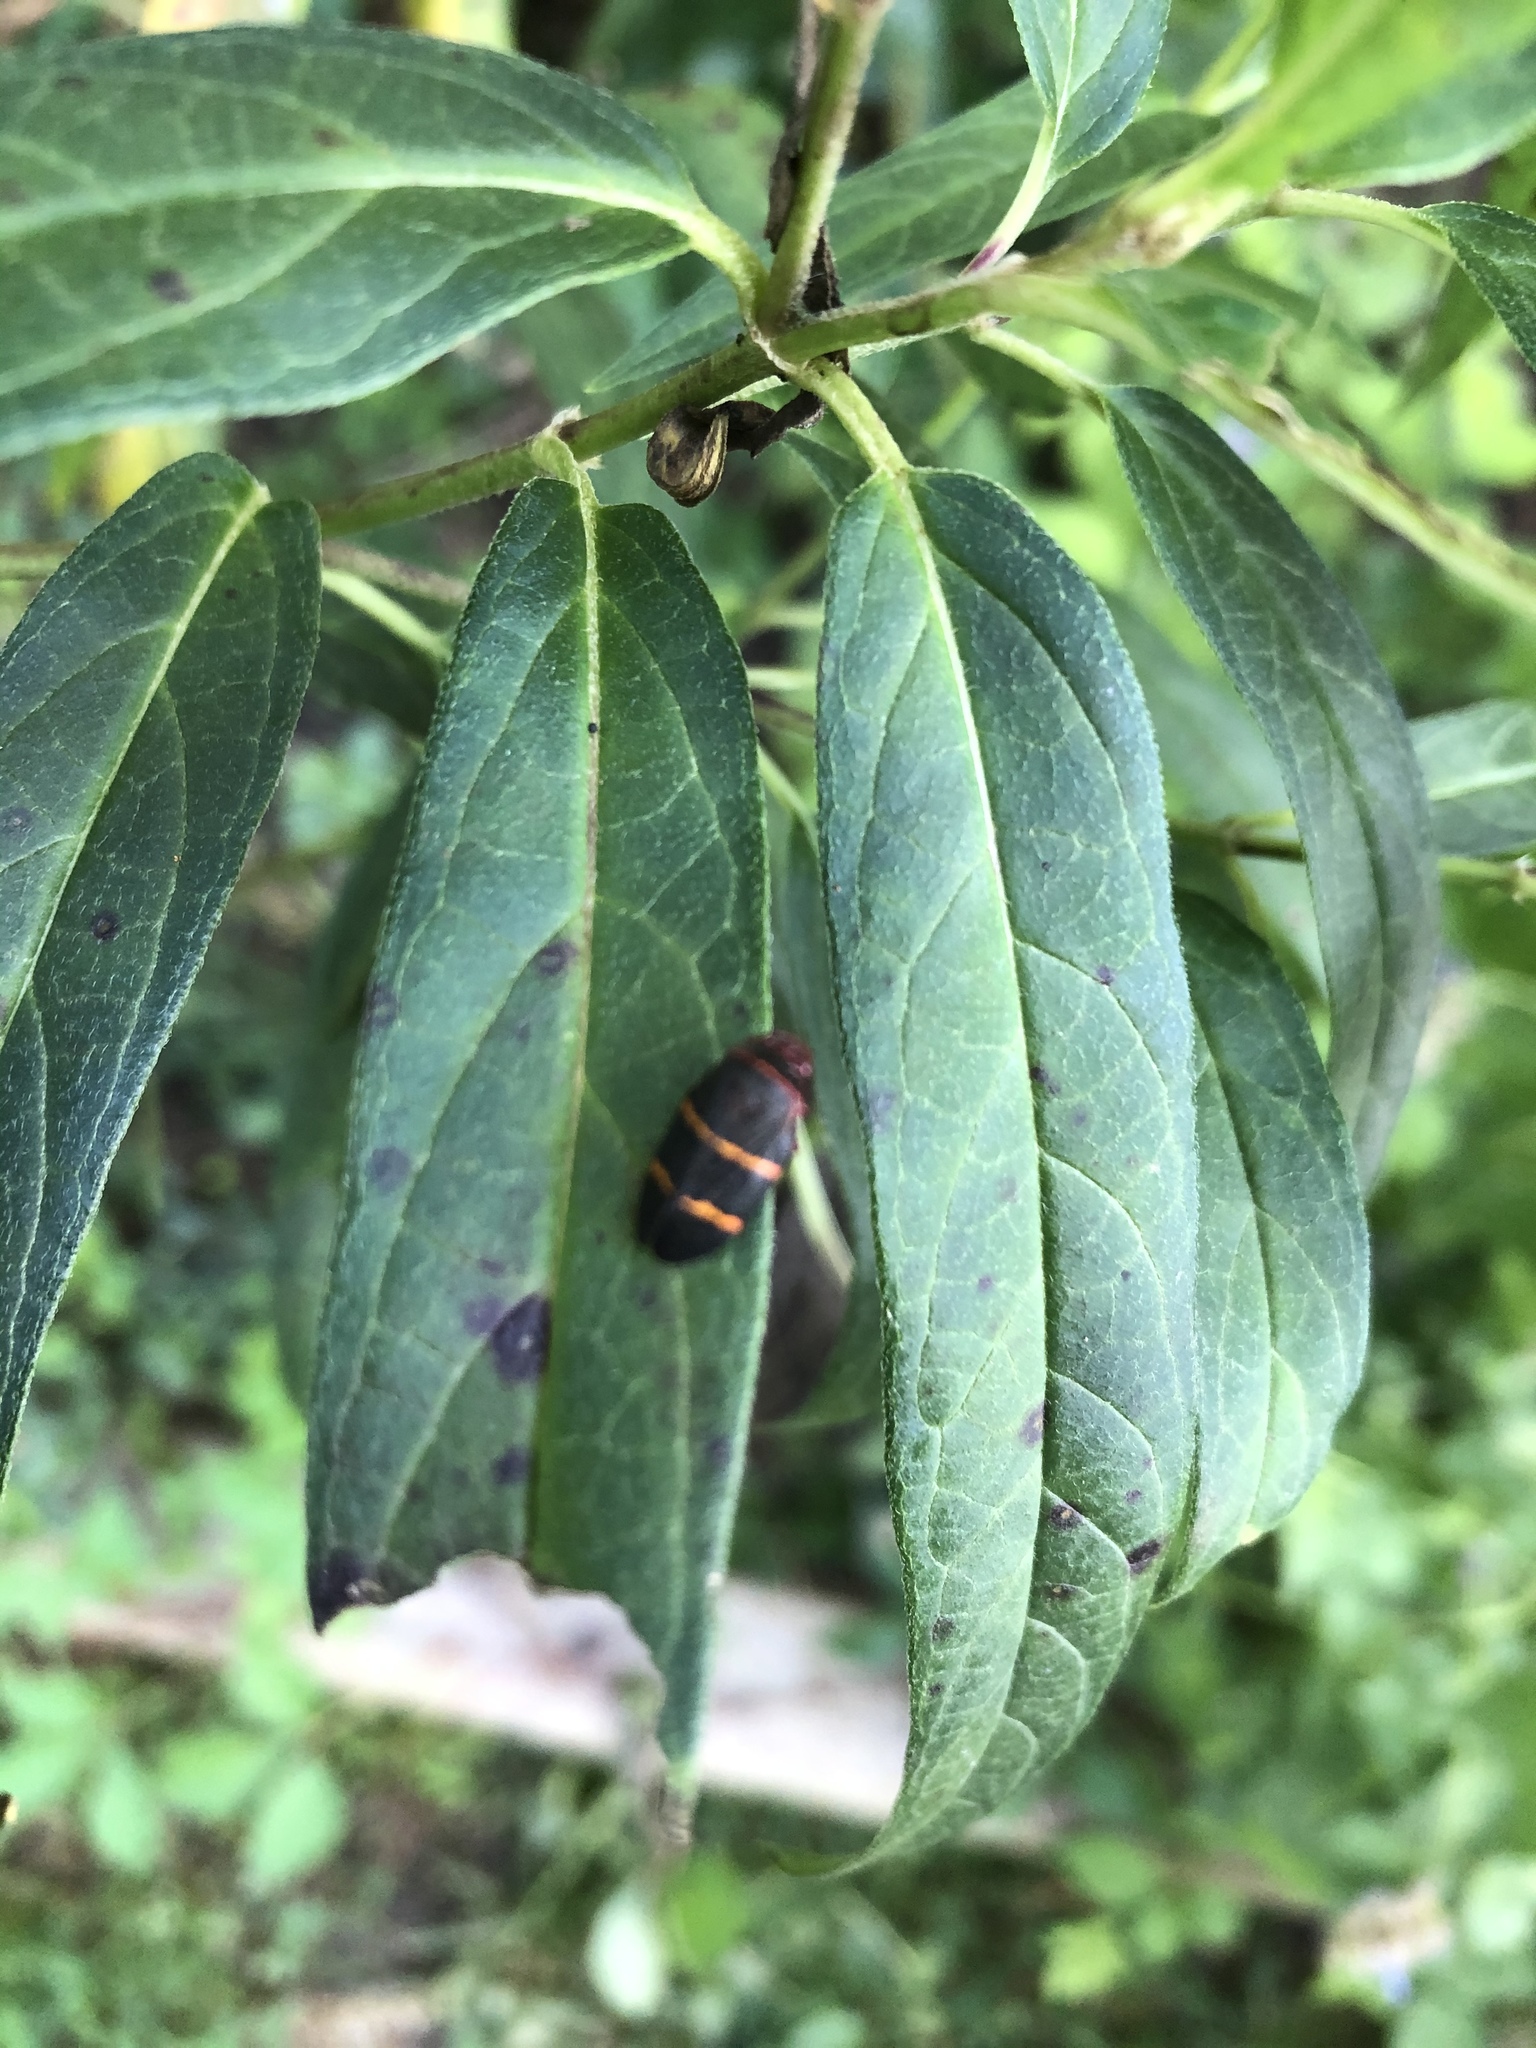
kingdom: Animalia
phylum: Arthropoda
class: Insecta
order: Hemiptera
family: Cercopidae
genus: Prosapia
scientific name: Prosapia bicincta
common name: Twolined spittlebug
